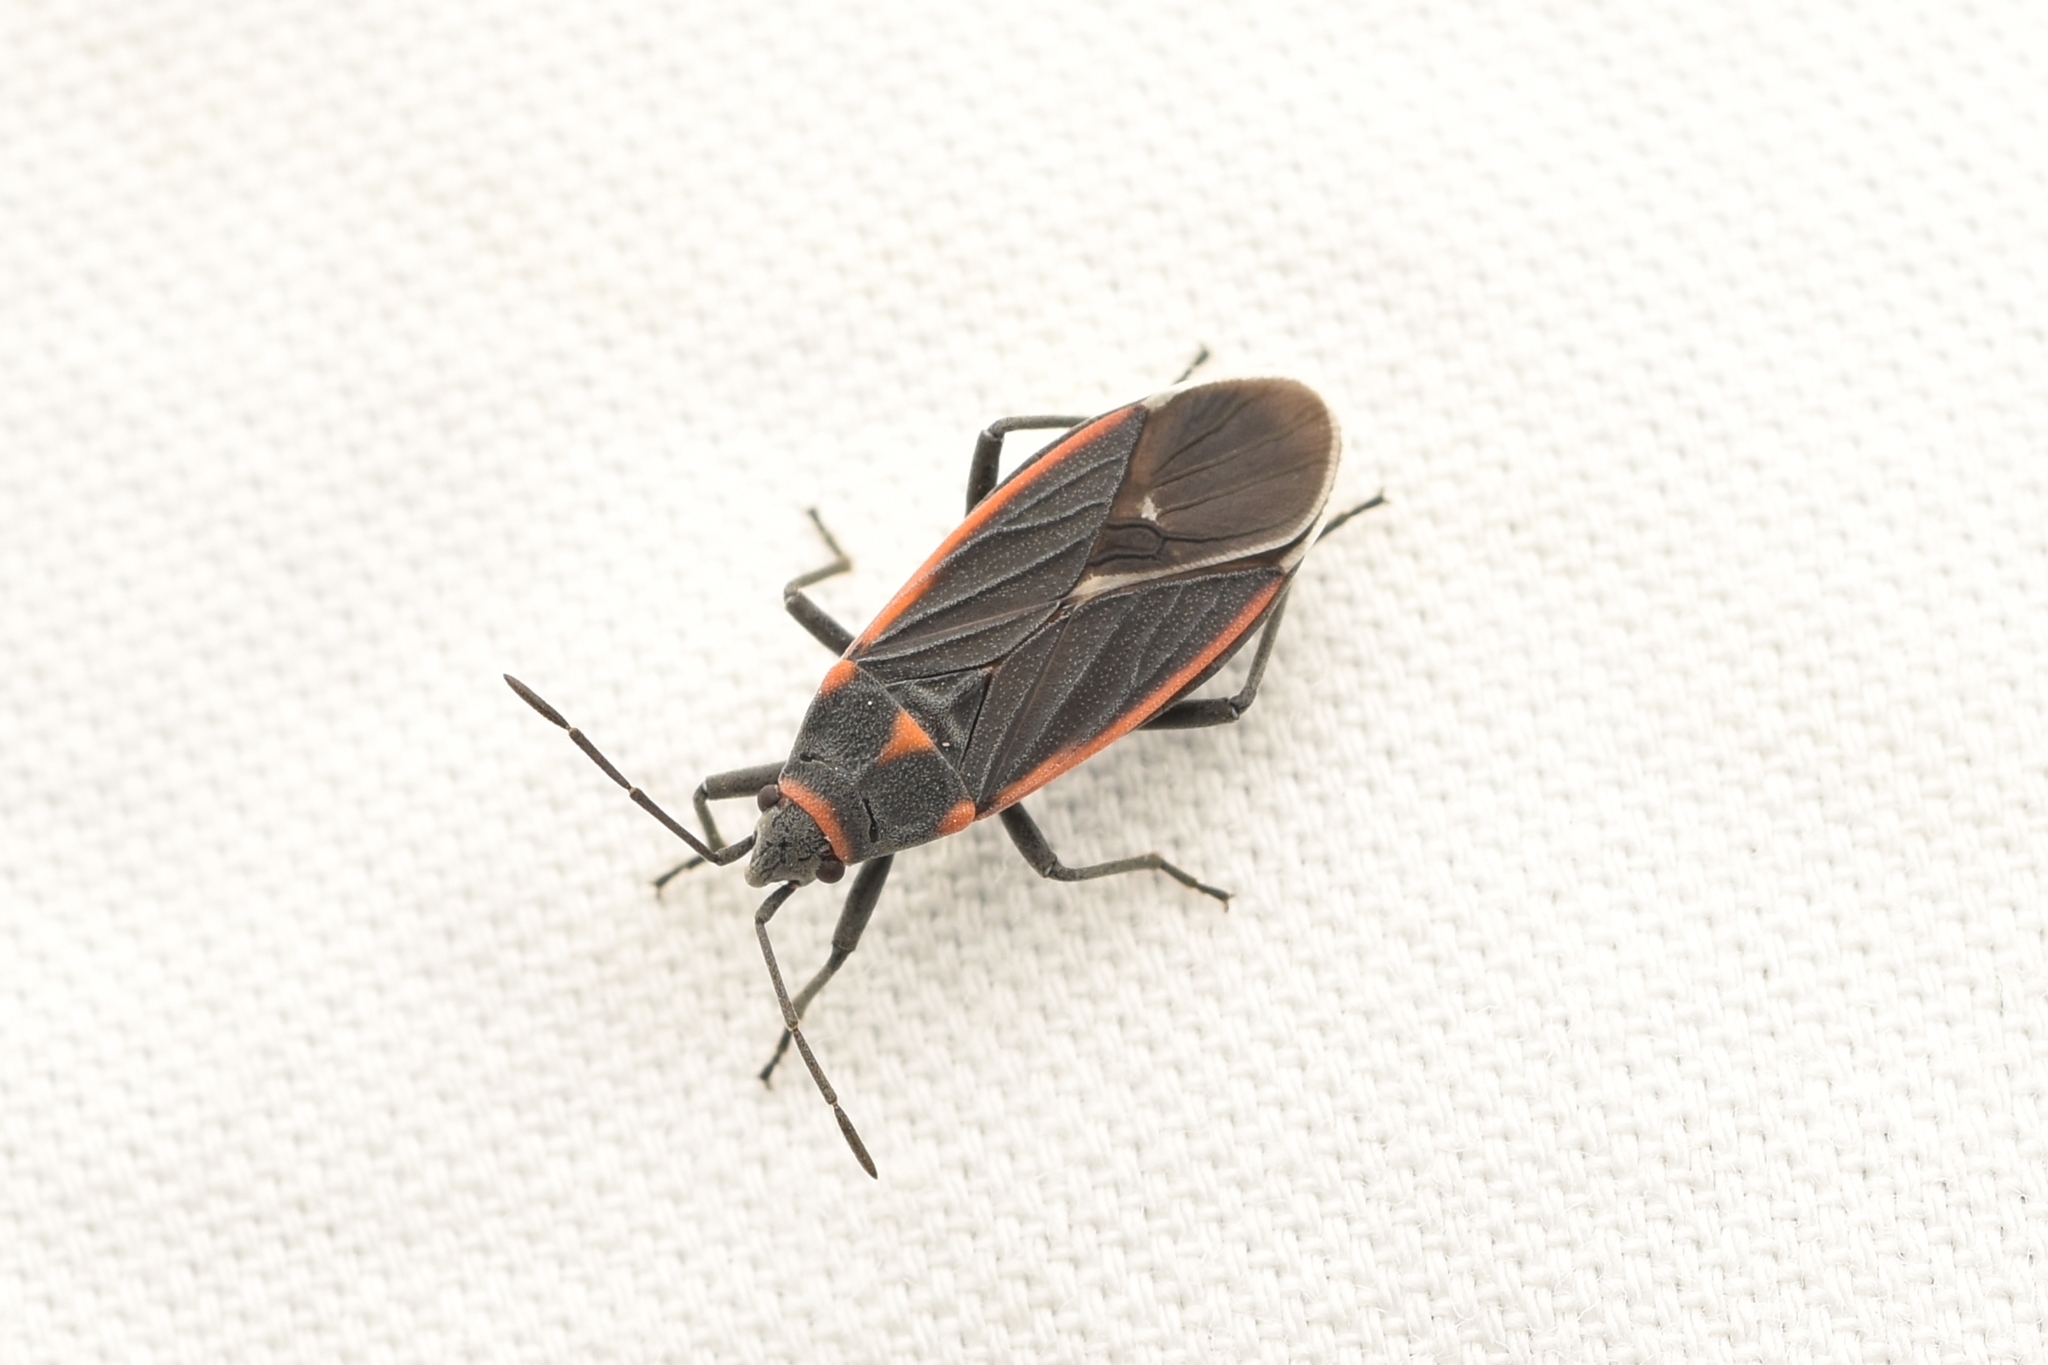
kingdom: Animalia
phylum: Arthropoda
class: Insecta
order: Hemiptera
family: Lygaeidae
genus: Melacoryphus
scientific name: Melacoryphus lateralis
